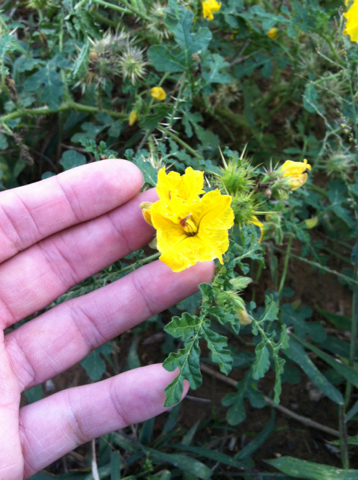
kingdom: Plantae
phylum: Tracheophyta
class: Magnoliopsida
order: Solanales
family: Solanaceae
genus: Solanum
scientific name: Solanum angustifolium
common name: Buffalobur nightshade
